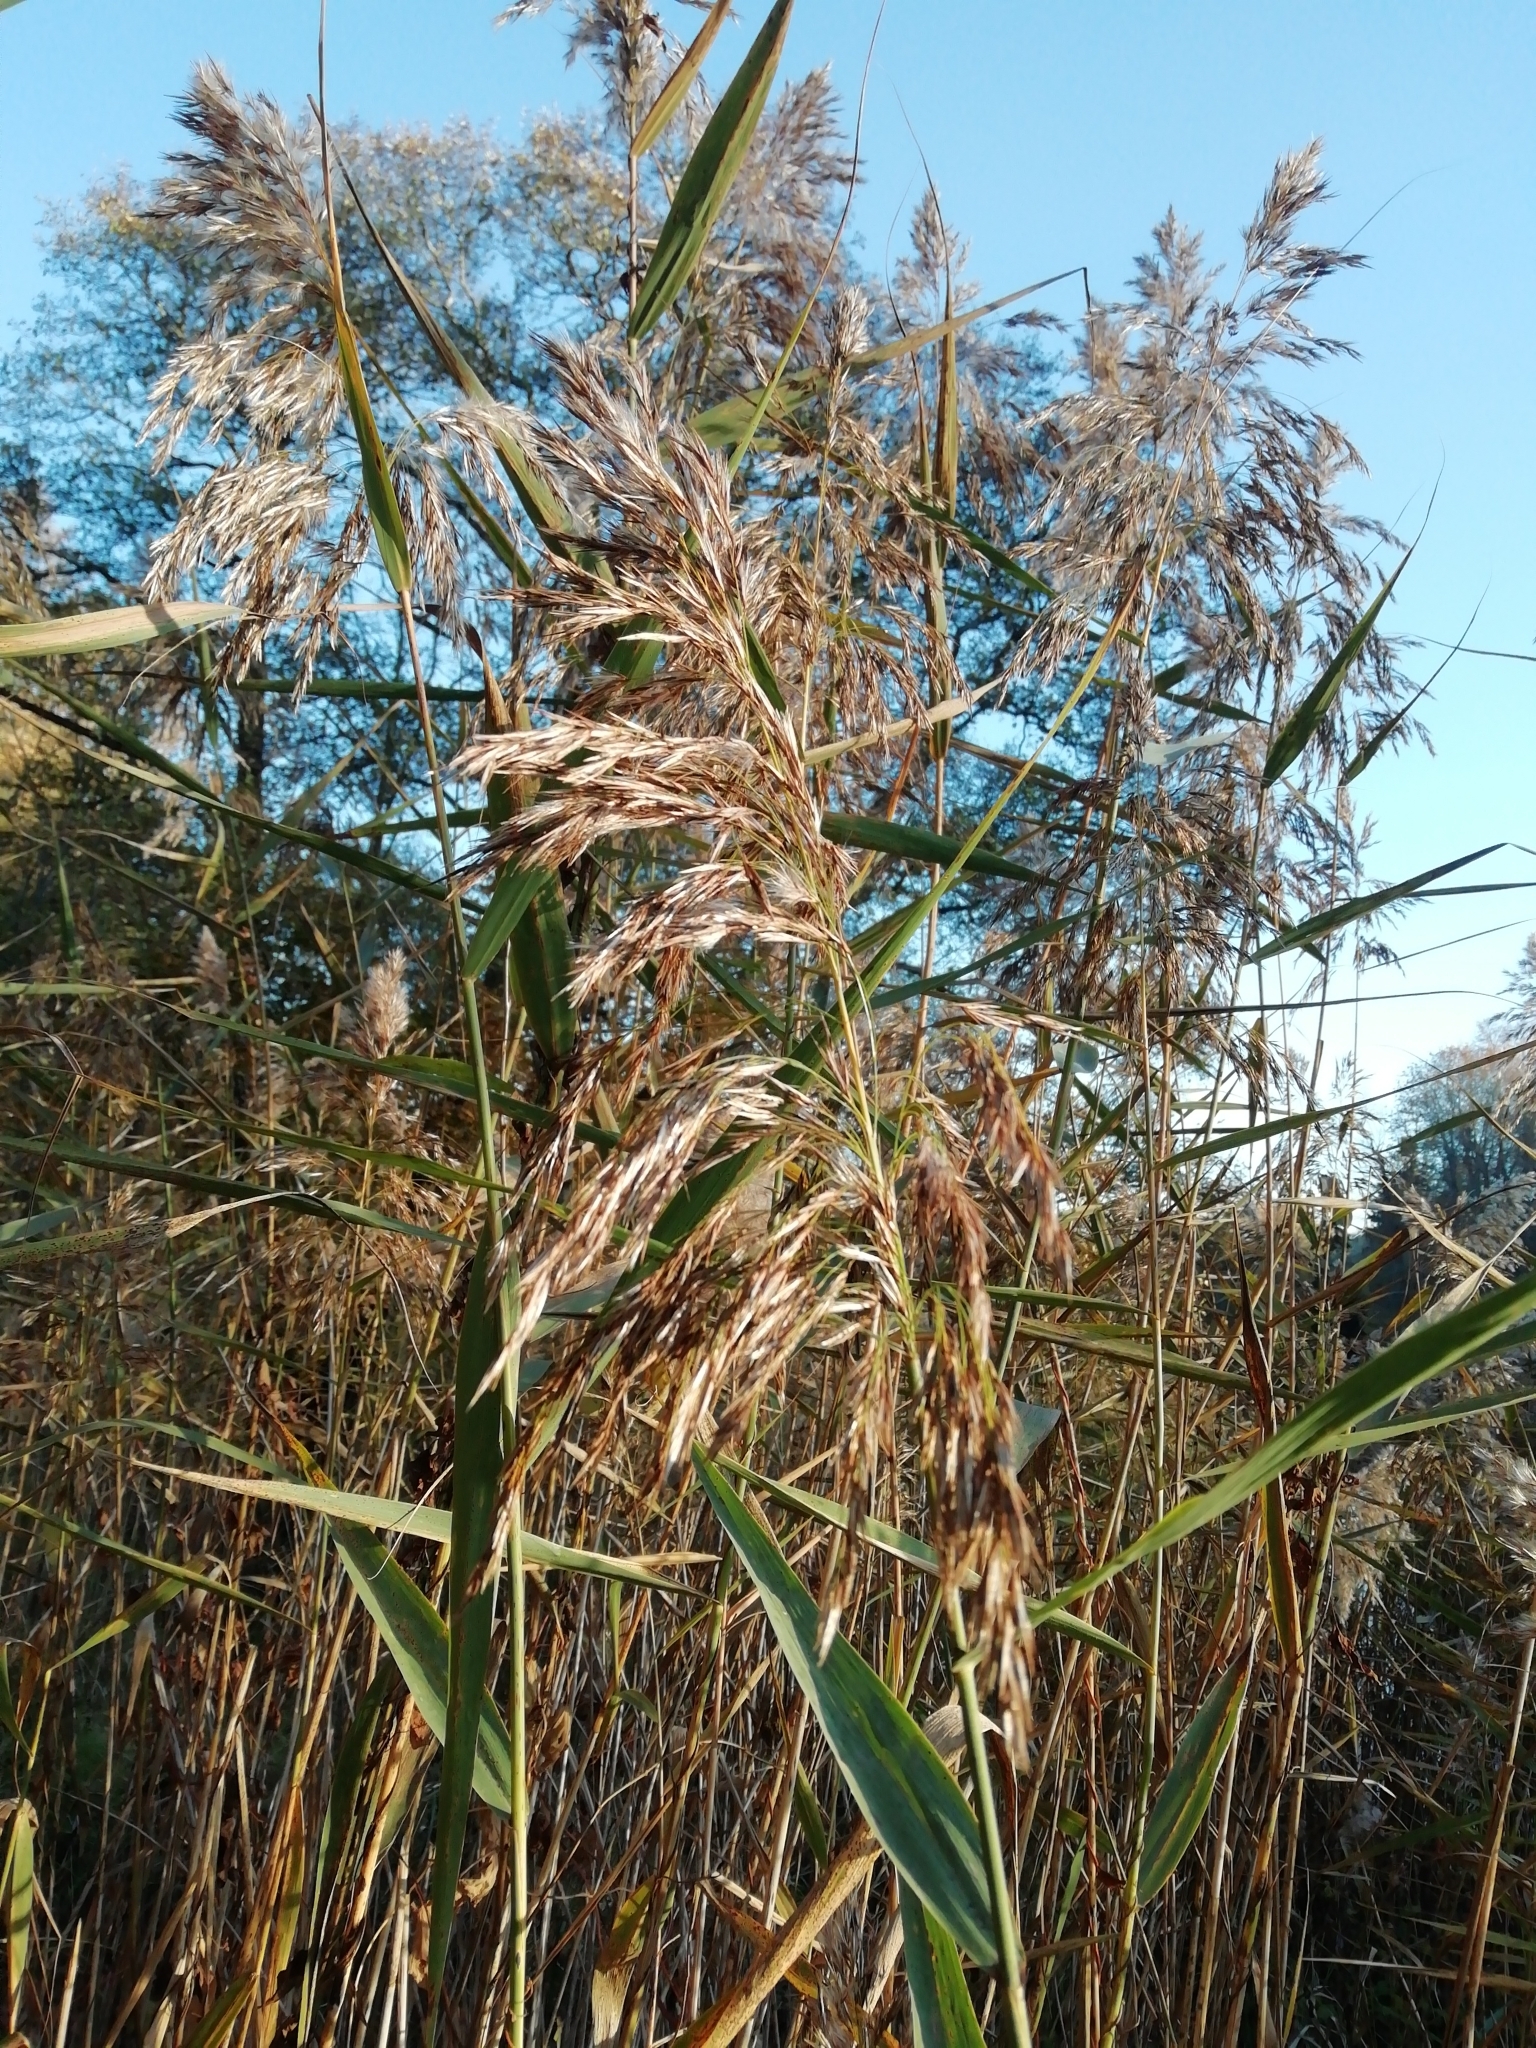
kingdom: Plantae
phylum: Tracheophyta
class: Liliopsida
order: Poales
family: Poaceae
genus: Phragmites
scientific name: Phragmites australis
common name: Common reed
